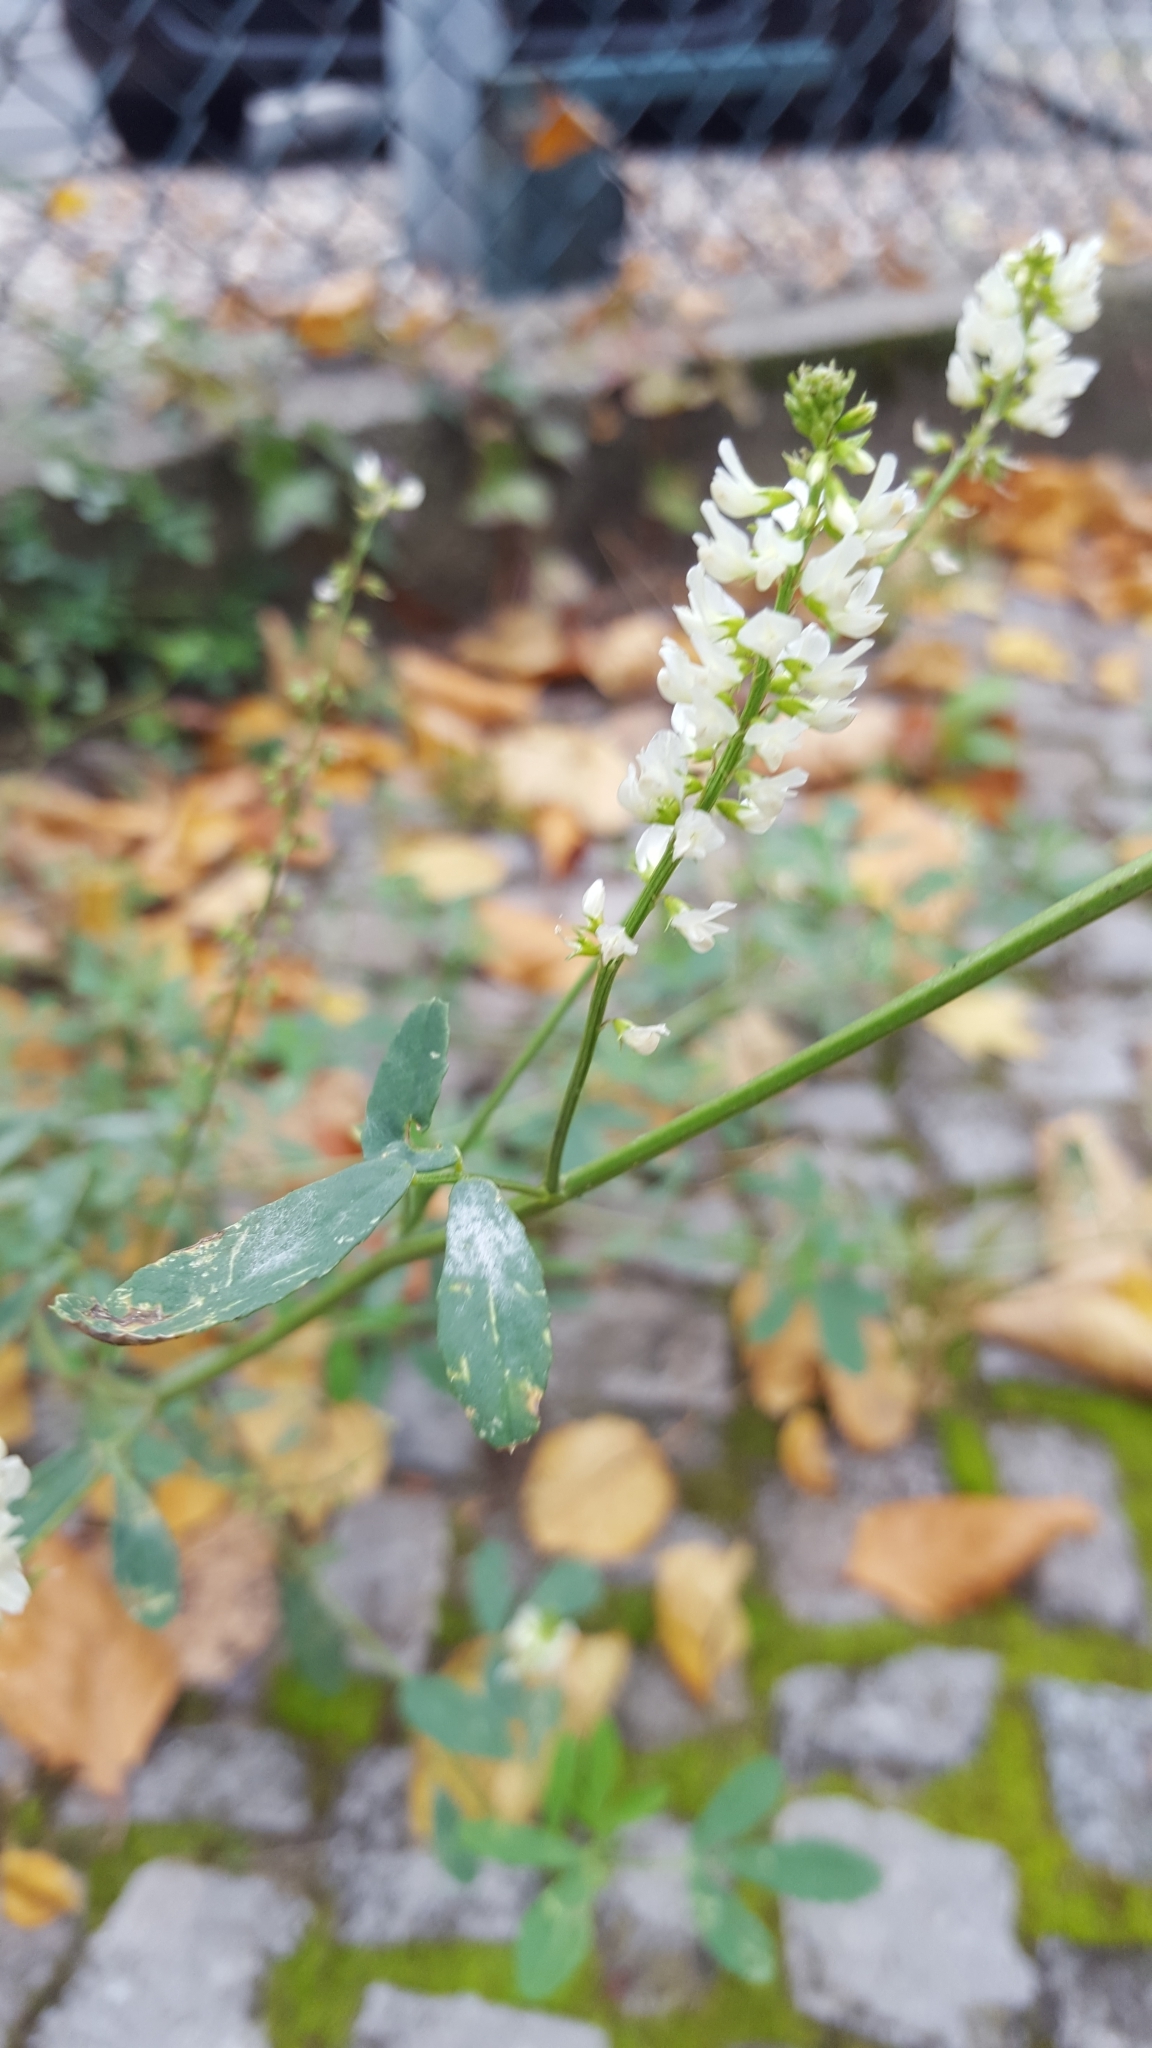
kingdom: Plantae
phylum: Tracheophyta
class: Magnoliopsida
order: Fabales
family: Fabaceae
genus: Melilotus
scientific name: Melilotus albus
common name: White melilot
